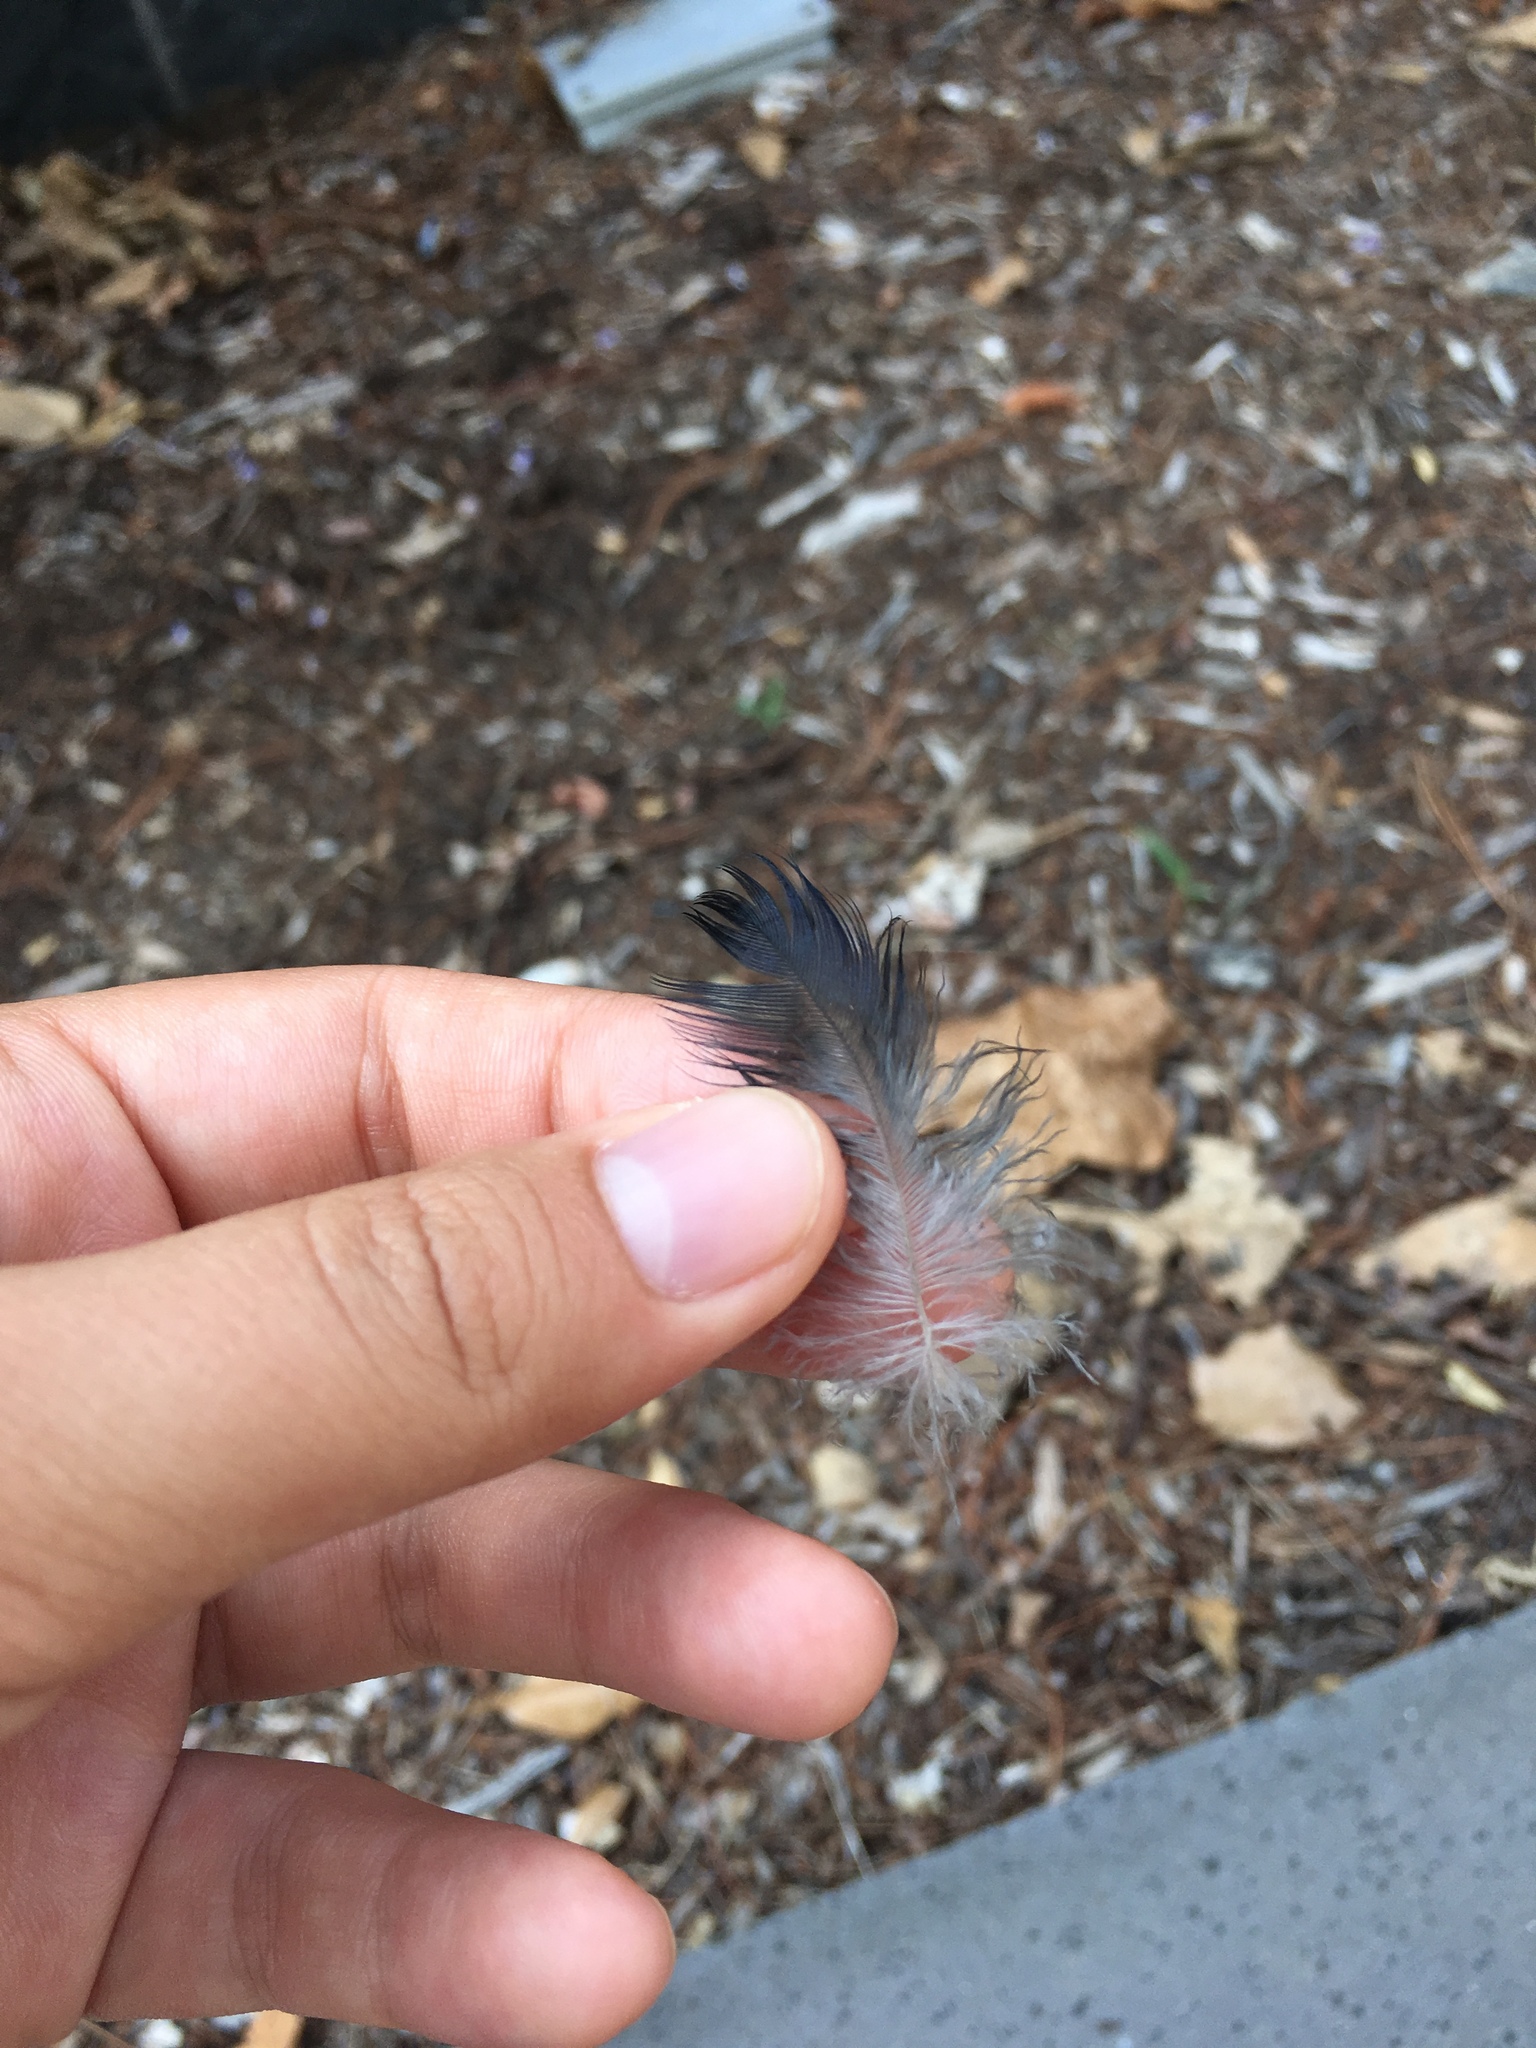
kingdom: Animalia
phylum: Chordata
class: Aves
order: Passeriformes
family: Corvidae
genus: Corvus
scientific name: Corvus
